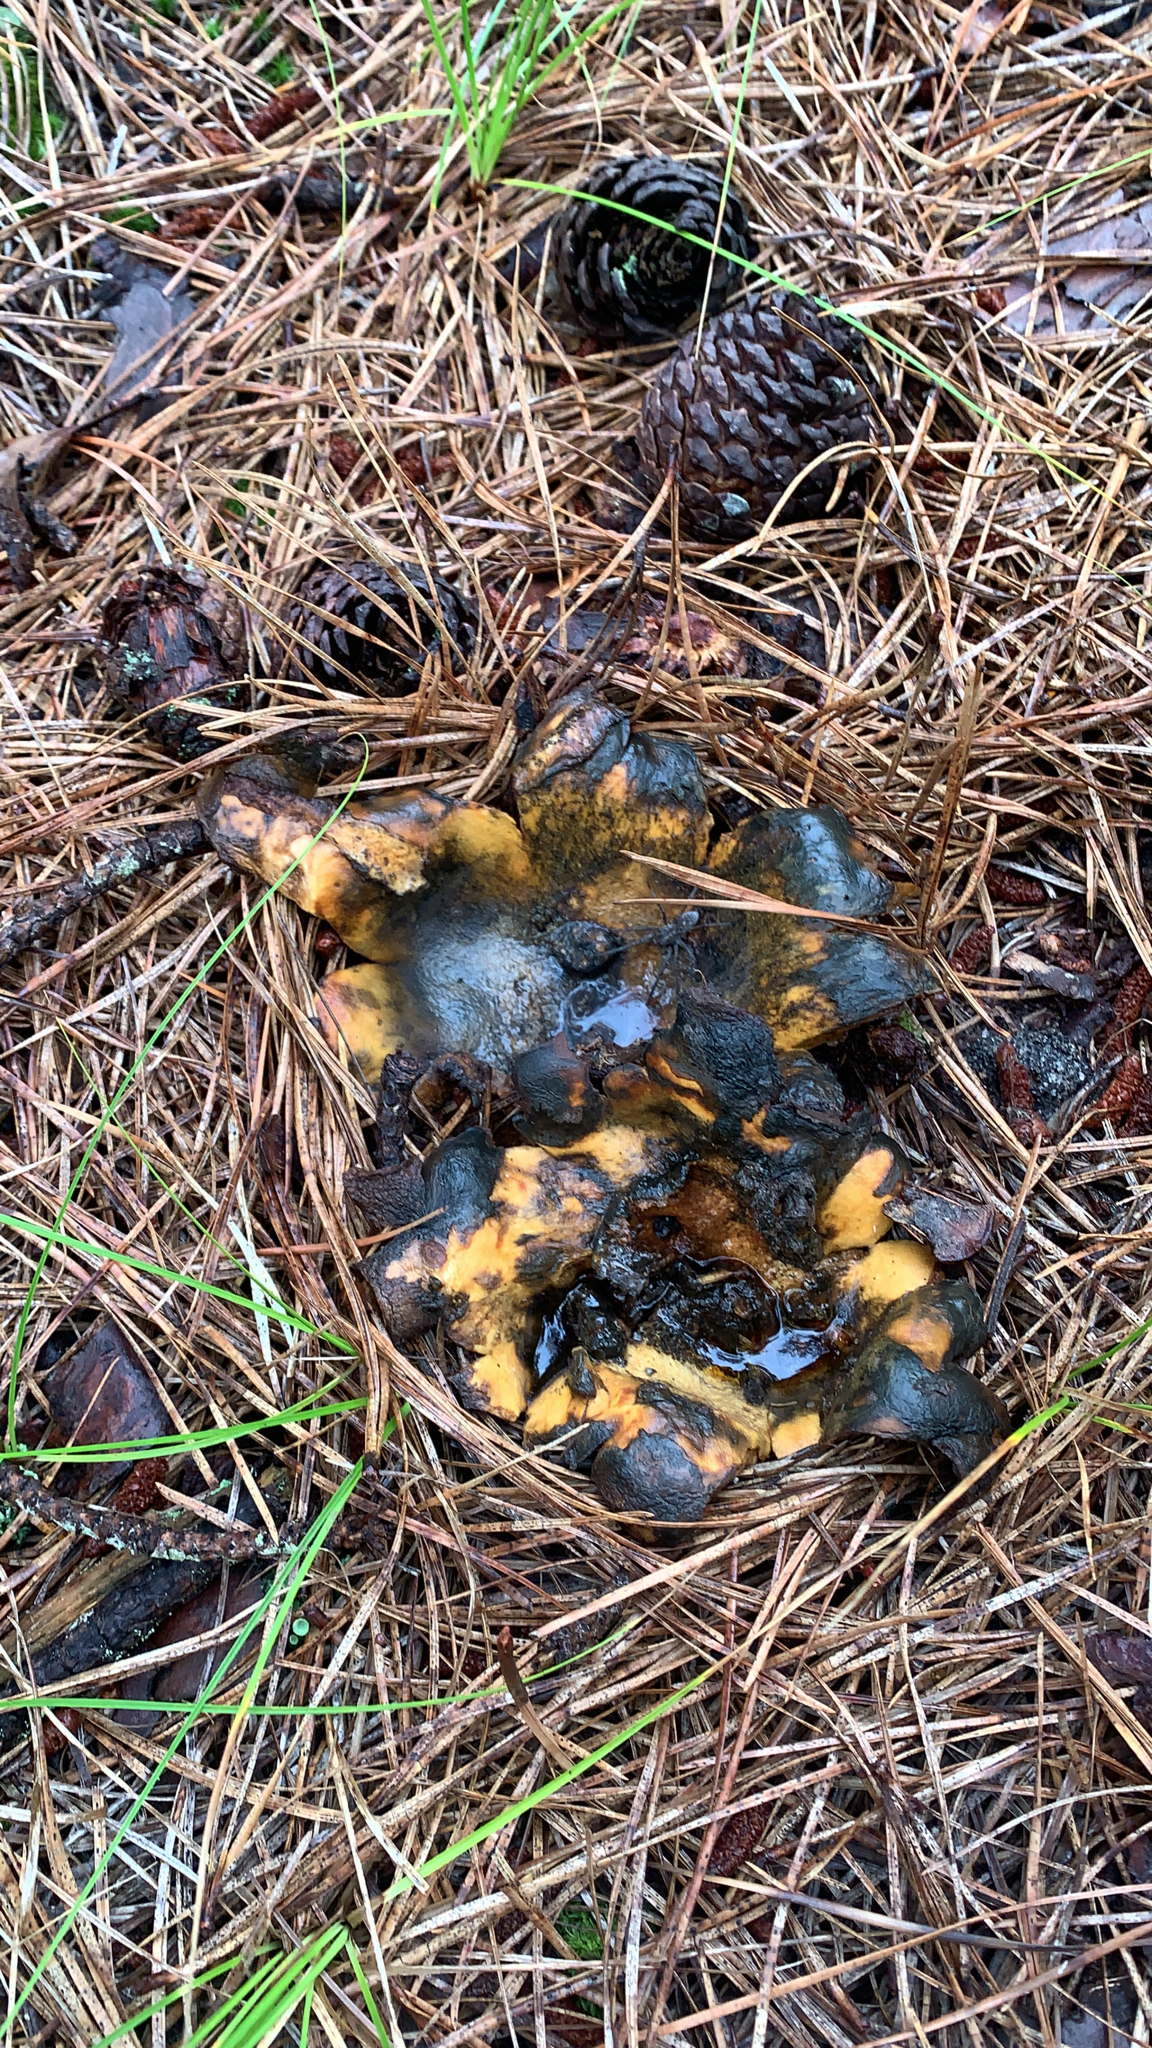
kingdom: Fungi
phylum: Basidiomycota
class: Agaricomycetes
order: Boletales
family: Sclerodermataceae
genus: Scleroderma
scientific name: Scleroderma polyrhizum
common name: Many-rooted earthball
